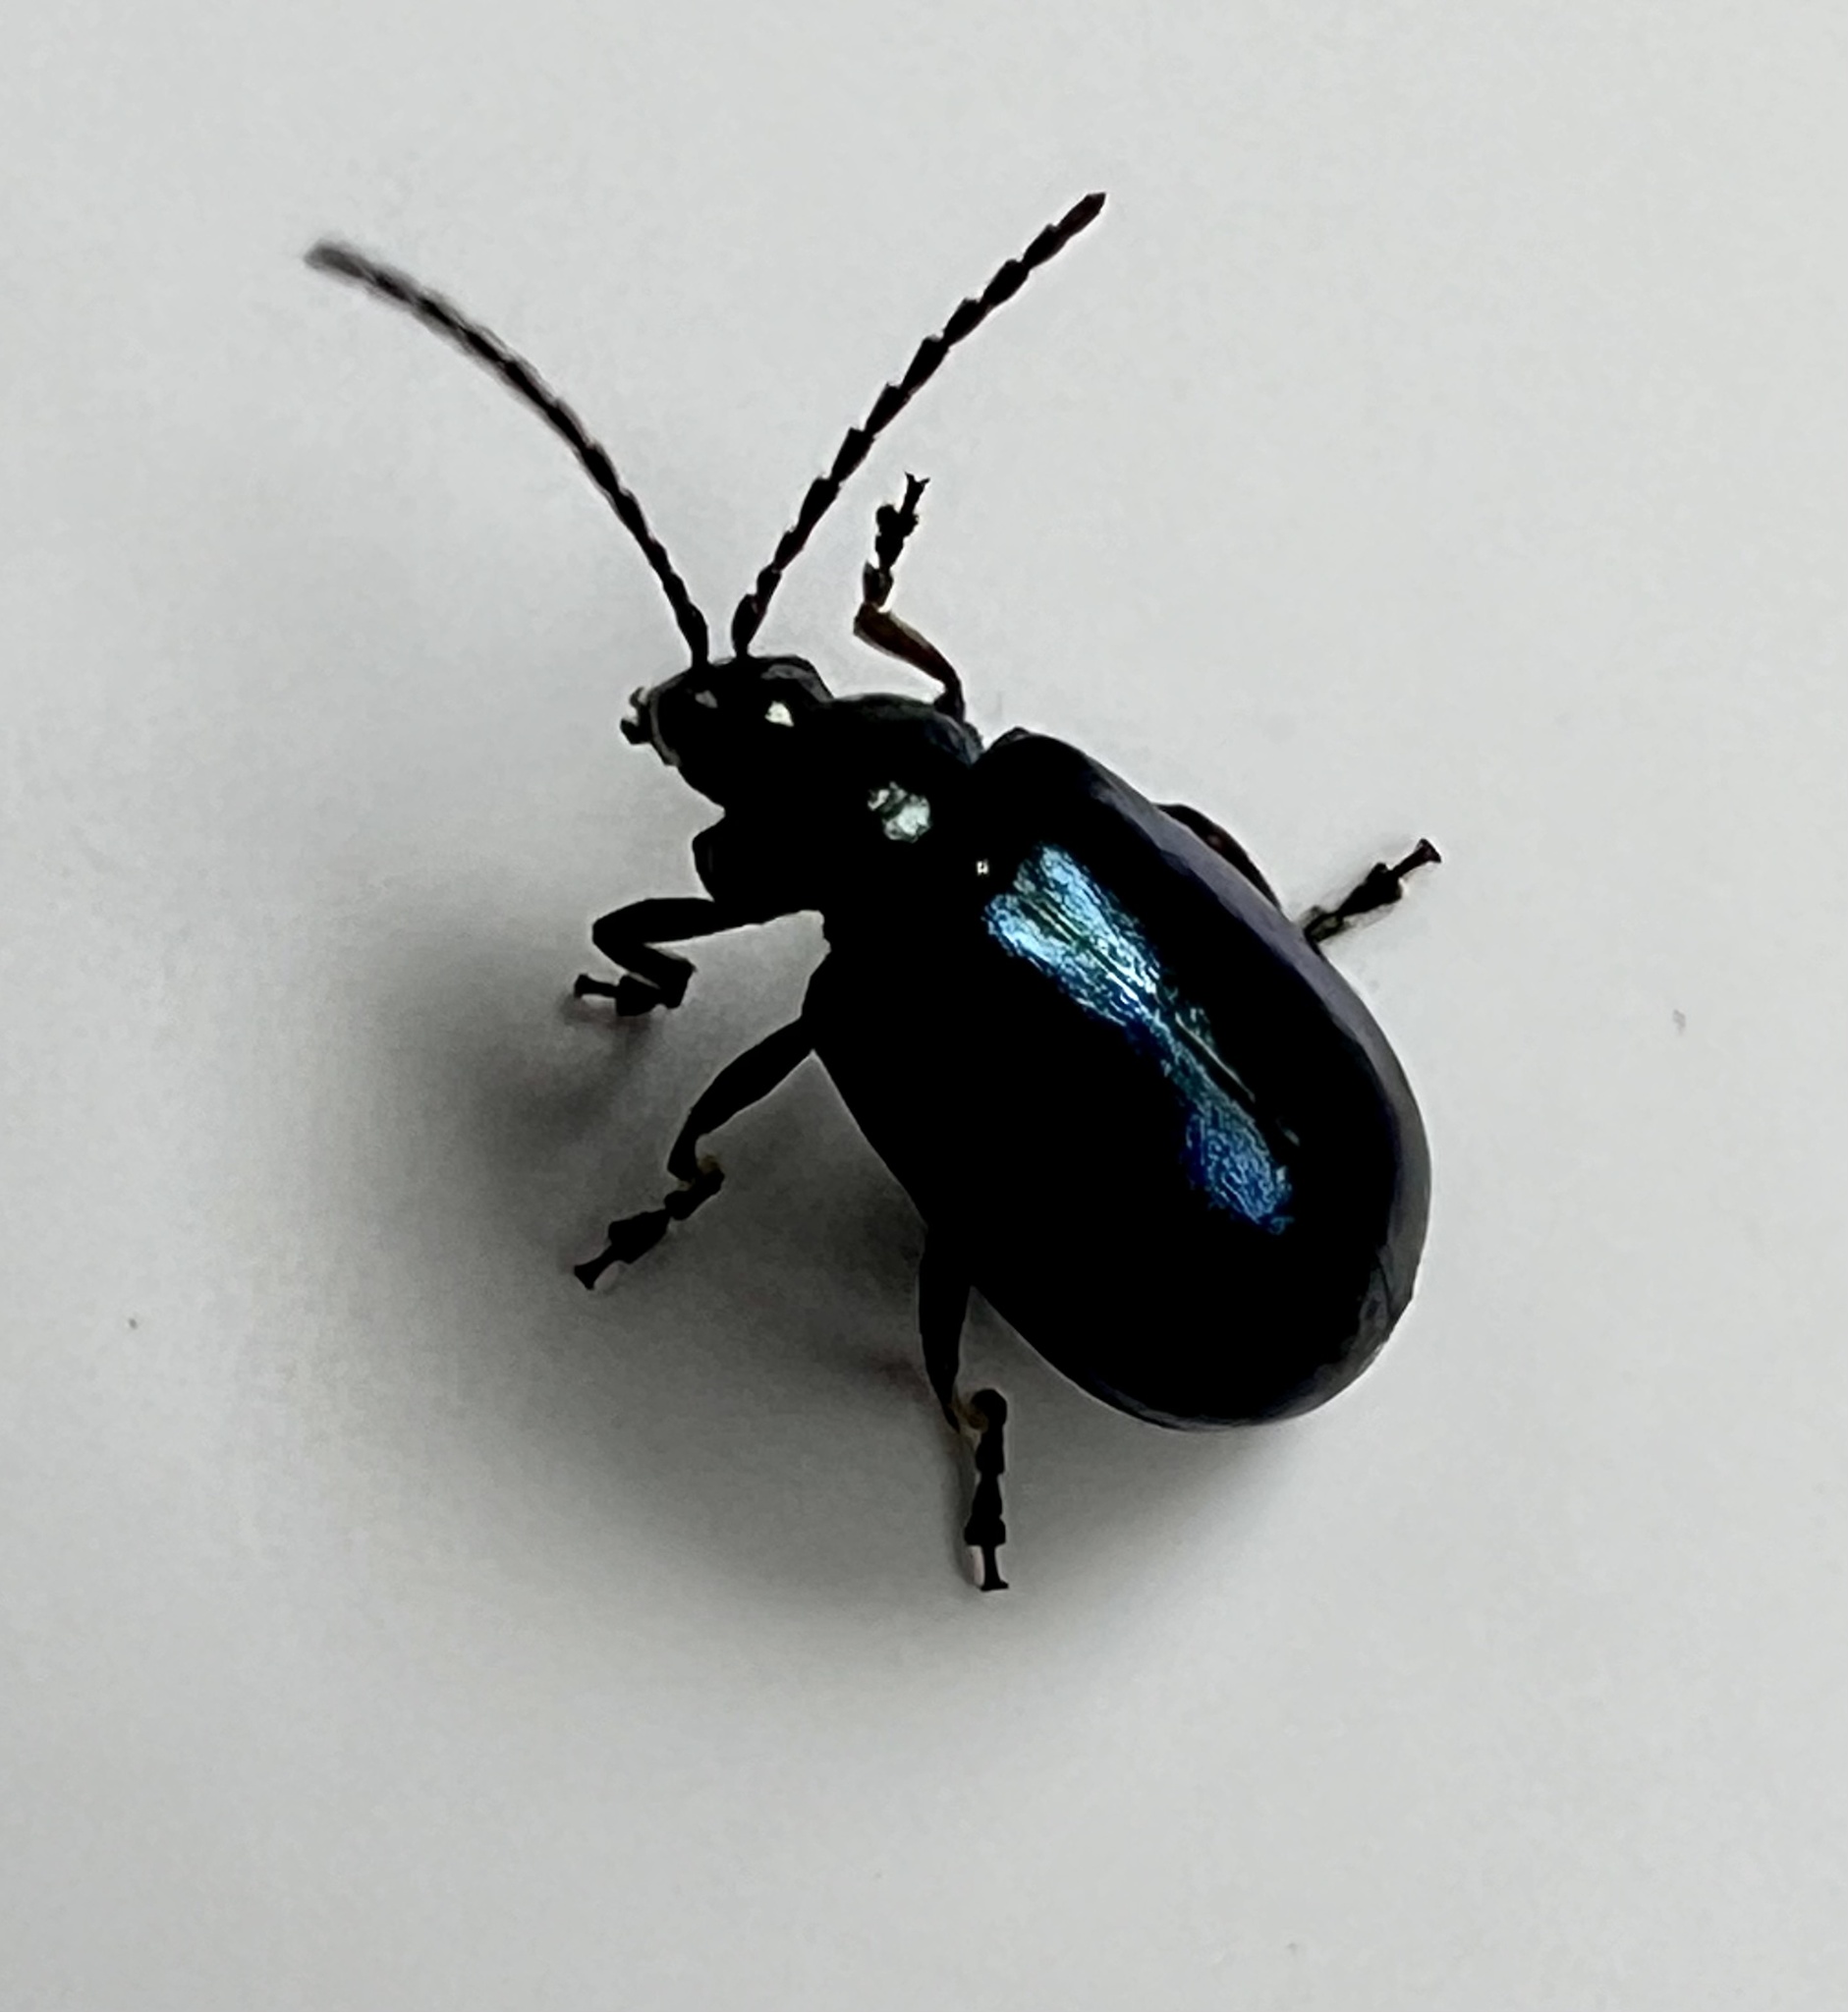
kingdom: Animalia
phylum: Arthropoda
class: Insecta
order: Coleoptera
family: Chrysomelidae
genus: Agelastica
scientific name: Agelastica alni
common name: Alder leaf beetle
